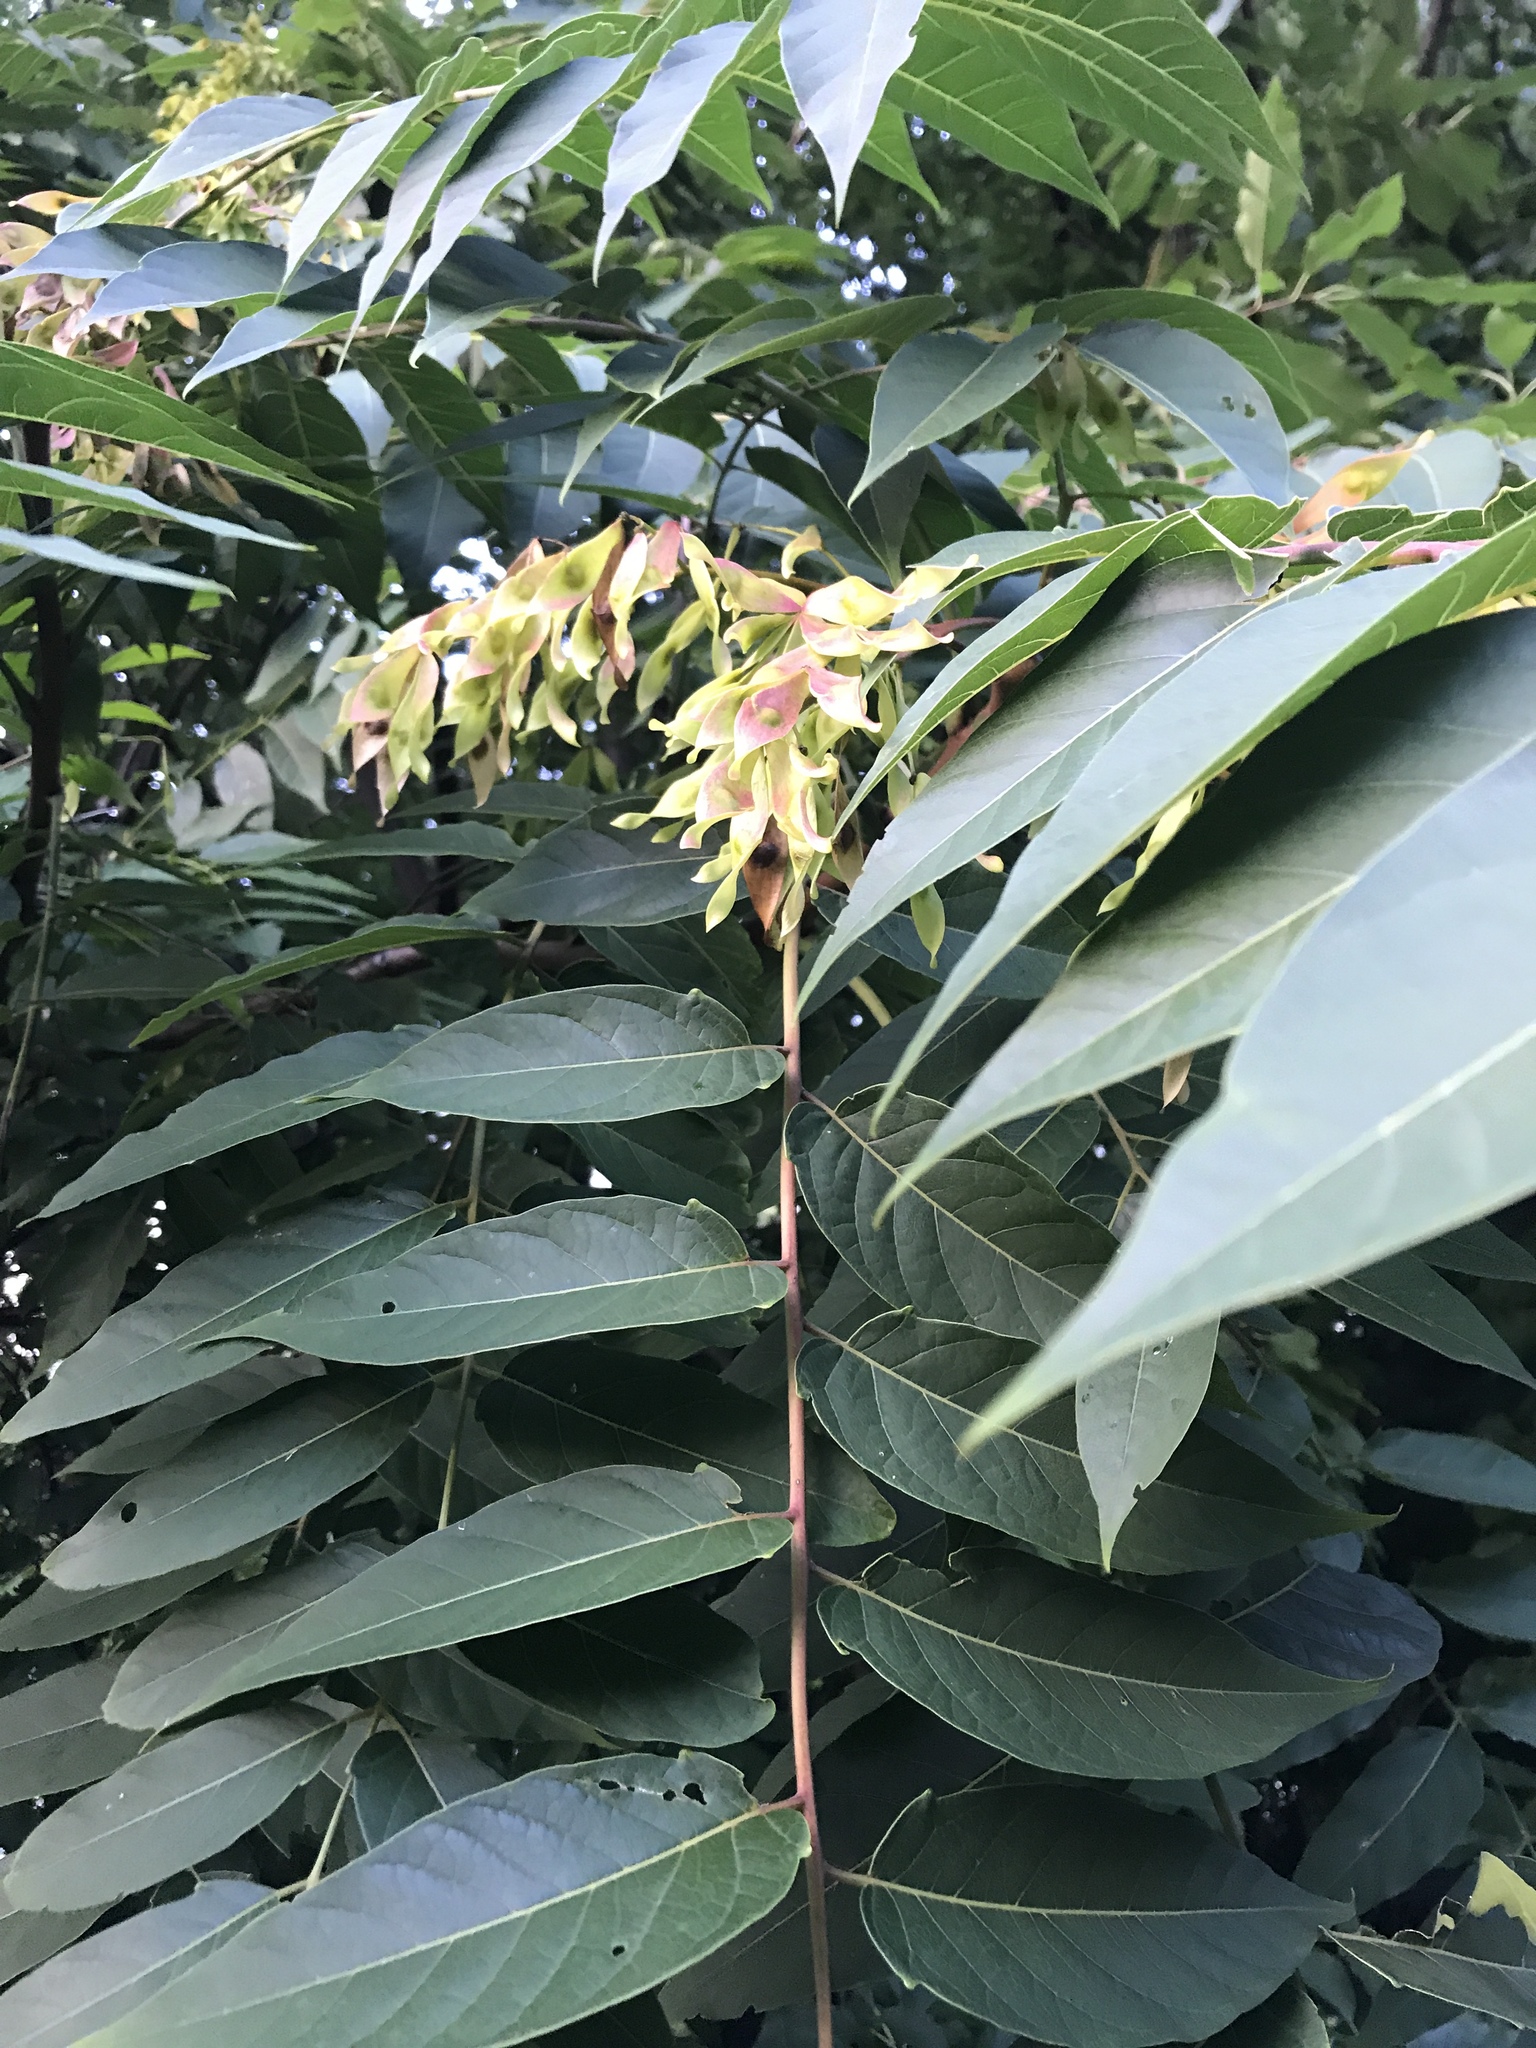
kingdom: Plantae
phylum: Tracheophyta
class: Magnoliopsida
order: Sapindales
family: Simaroubaceae
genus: Ailanthus
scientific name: Ailanthus altissima
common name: Tree-of-heaven
